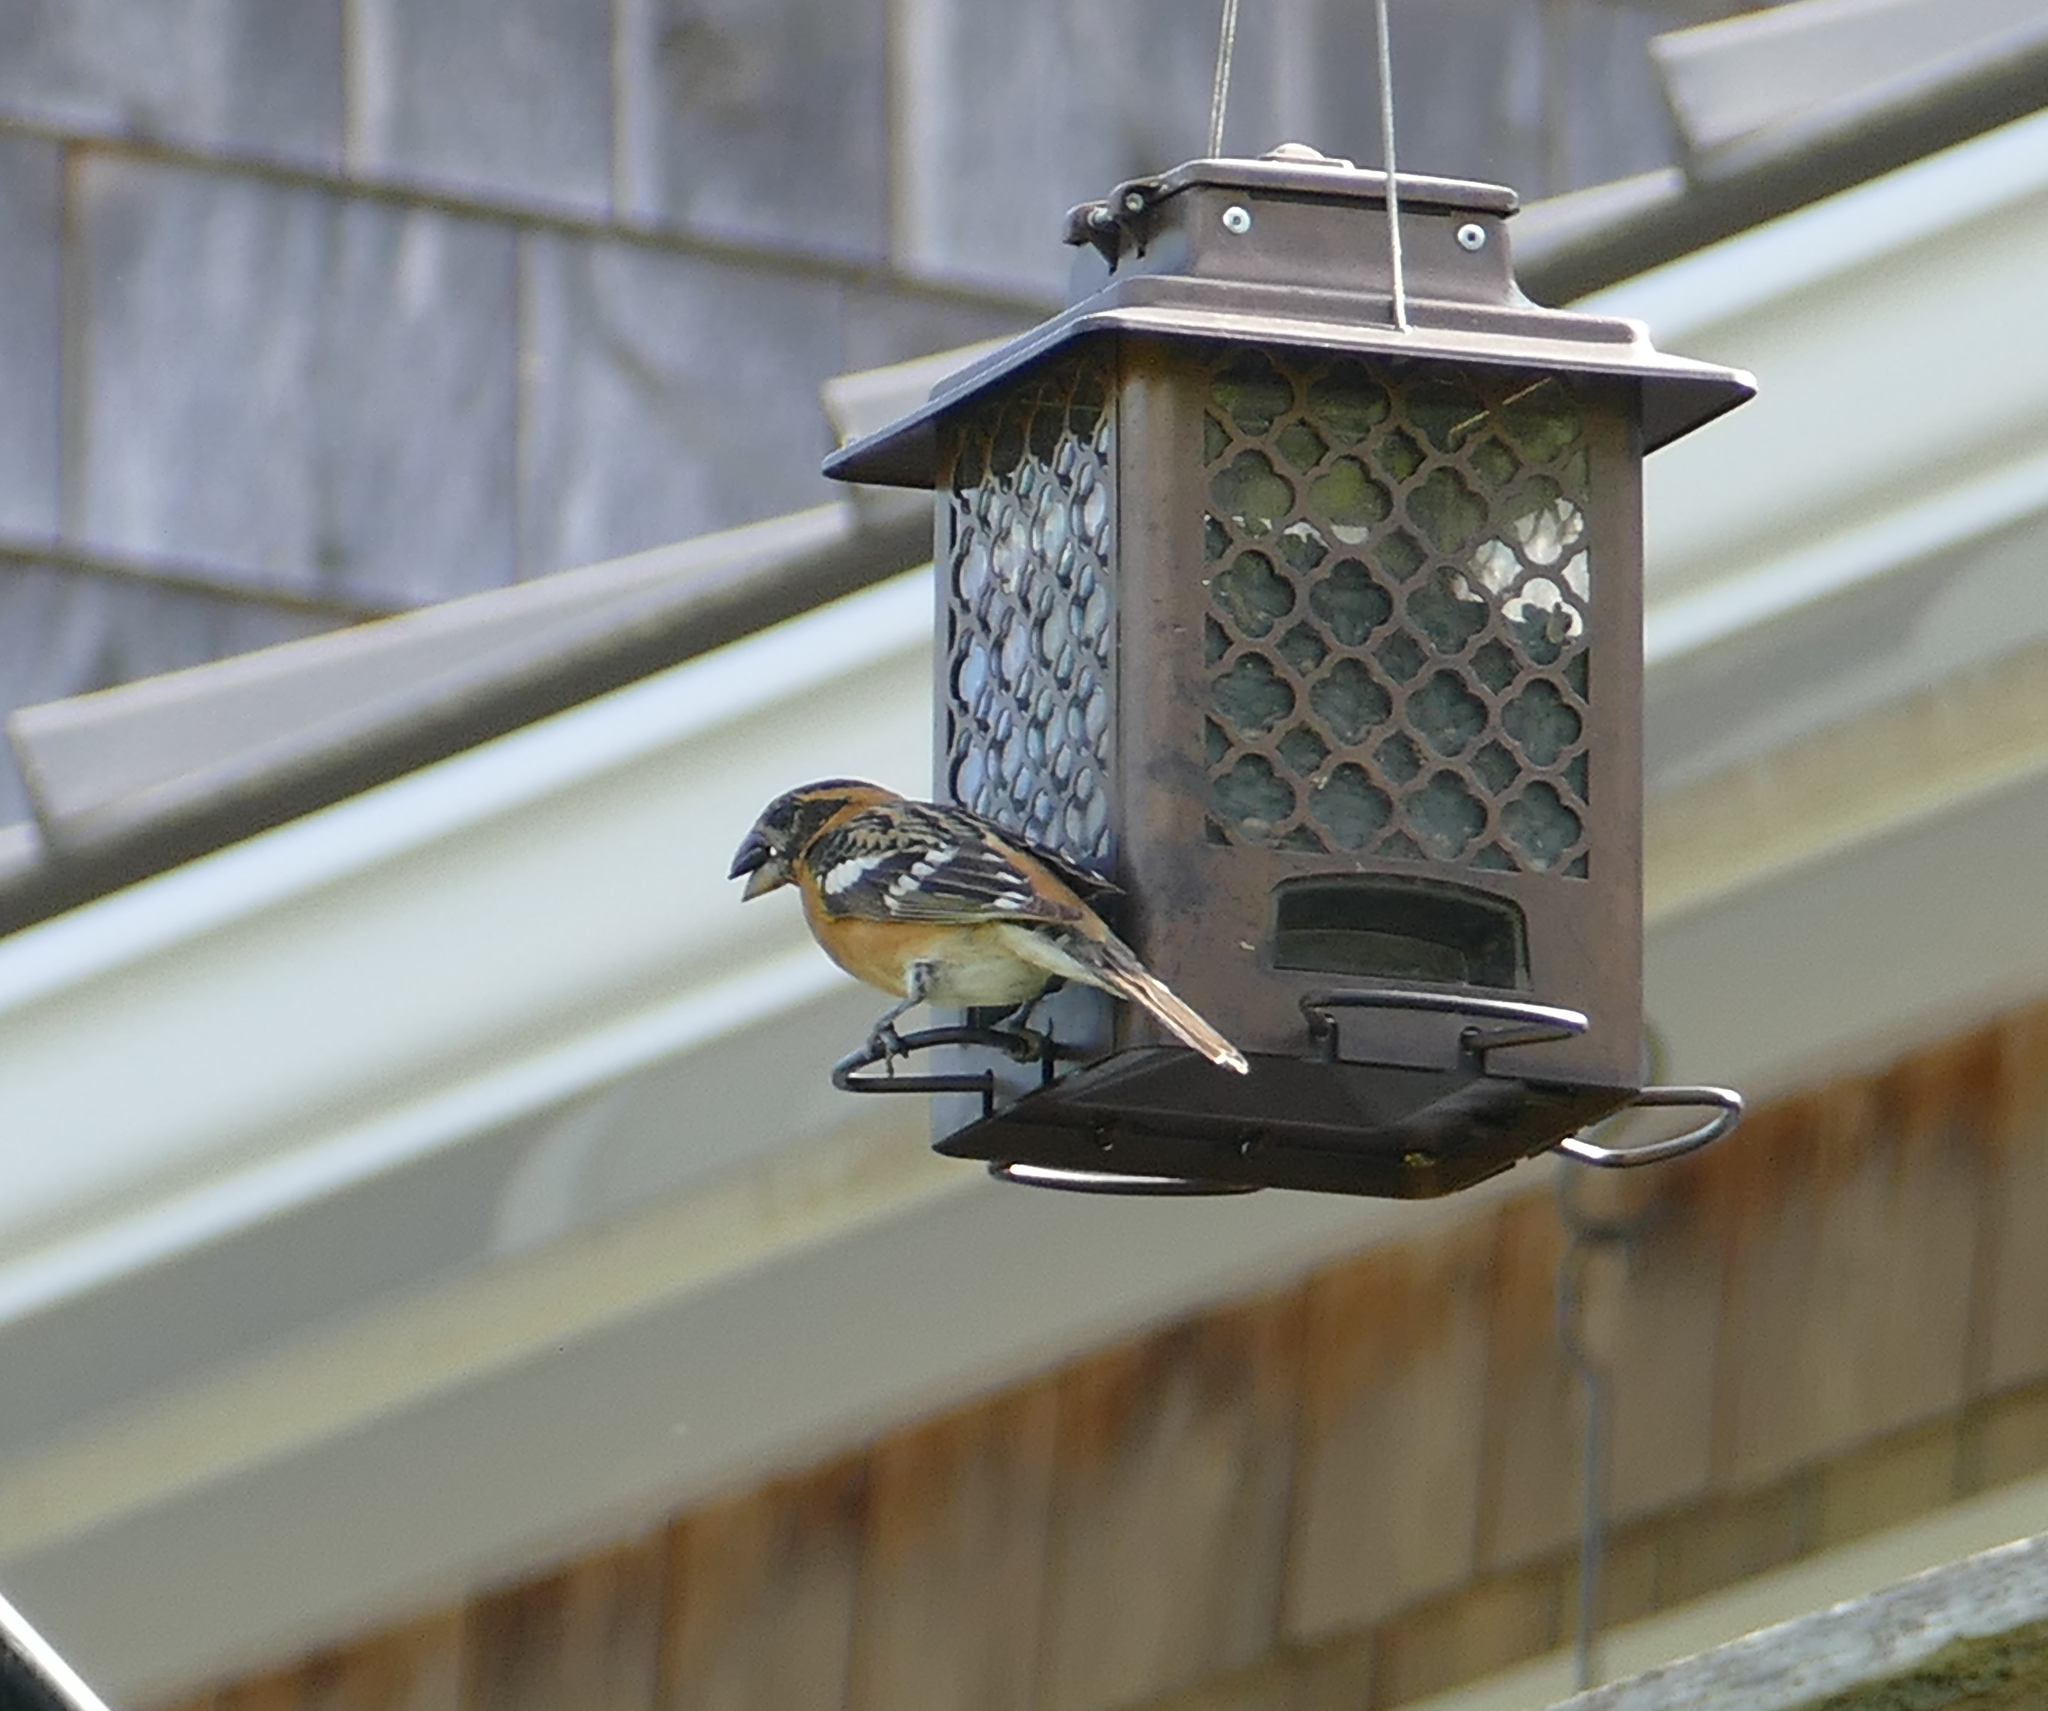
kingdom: Animalia
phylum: Chordata
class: Aves
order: Passeriformes
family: Cardinalidae
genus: Pheucticus
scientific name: Pheucticus melanocephalus
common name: Black-headed grosbeak
